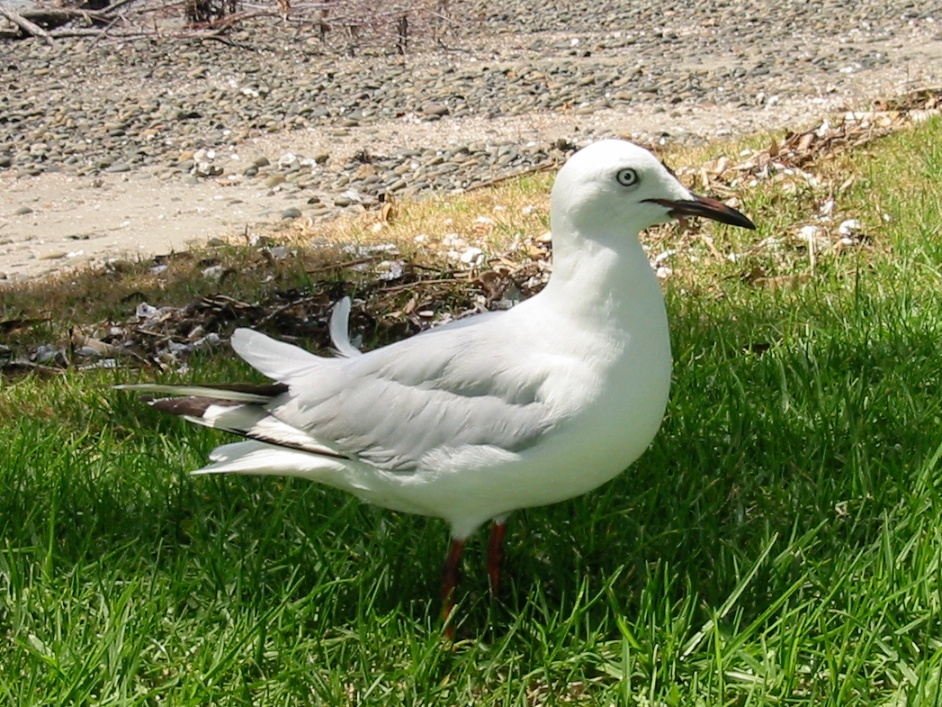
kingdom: Animalia
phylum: Chordata
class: Aves
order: Charadriiformes
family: Laridae
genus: Chroicocephalus
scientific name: Chroicocephalus novaehollandiae
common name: Silver gull
